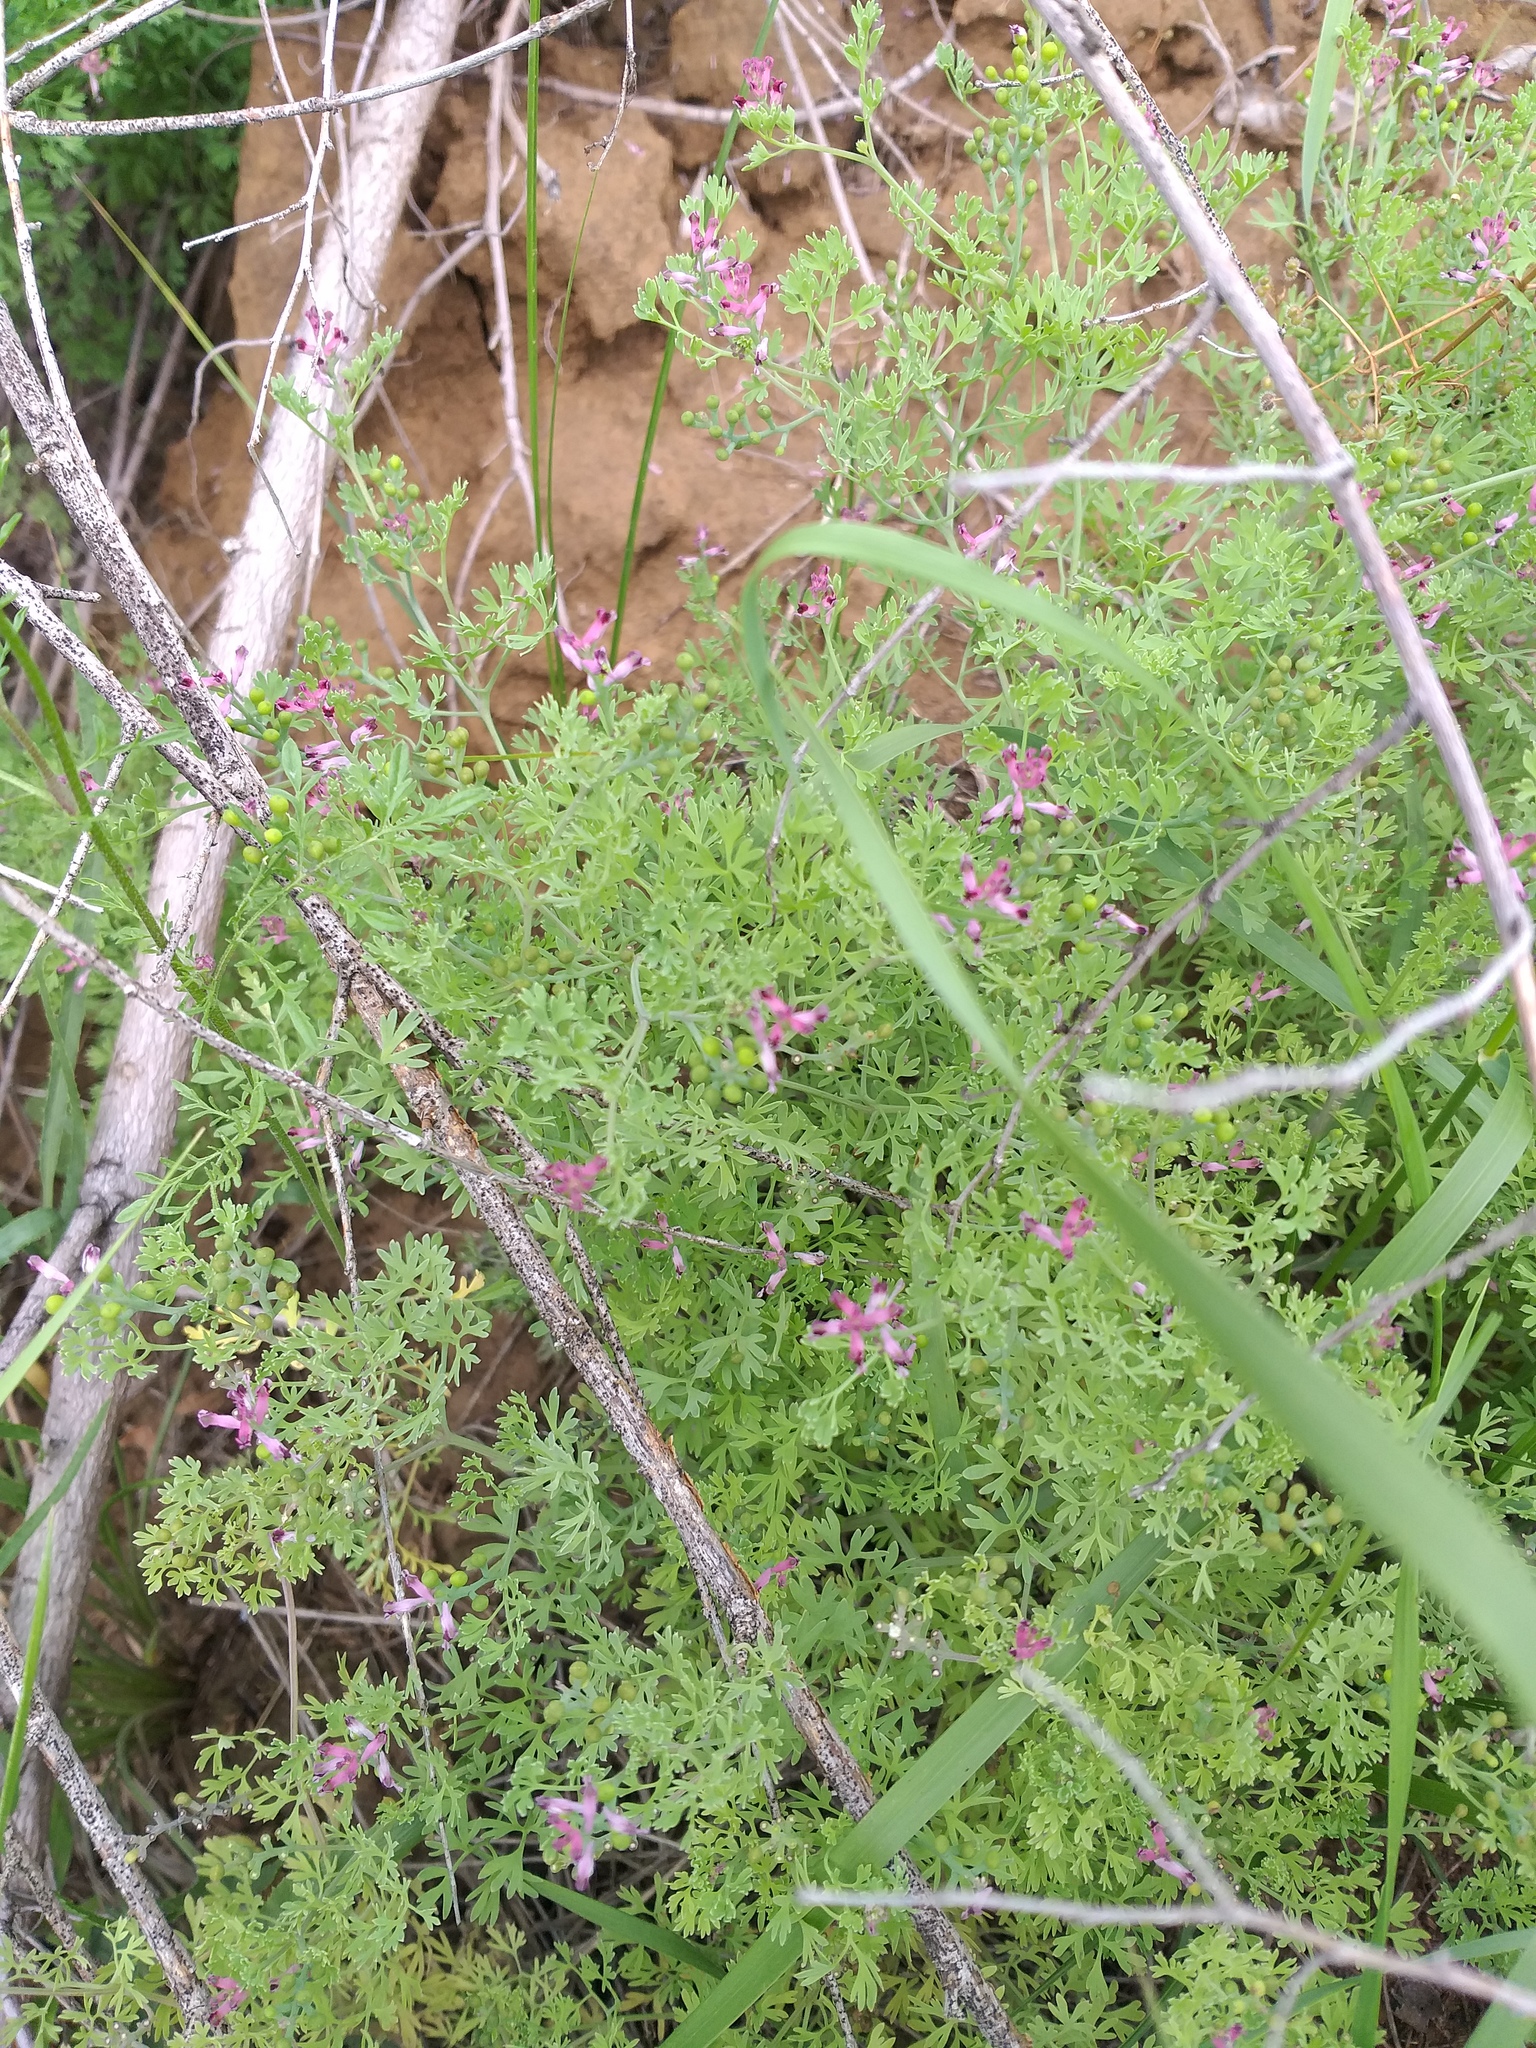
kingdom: Plantae
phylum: Tracheophyta
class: Magnoliopsida
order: Ranunculales
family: Papaveraceae
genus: Fumaria
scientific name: Fumaria schleicheri
